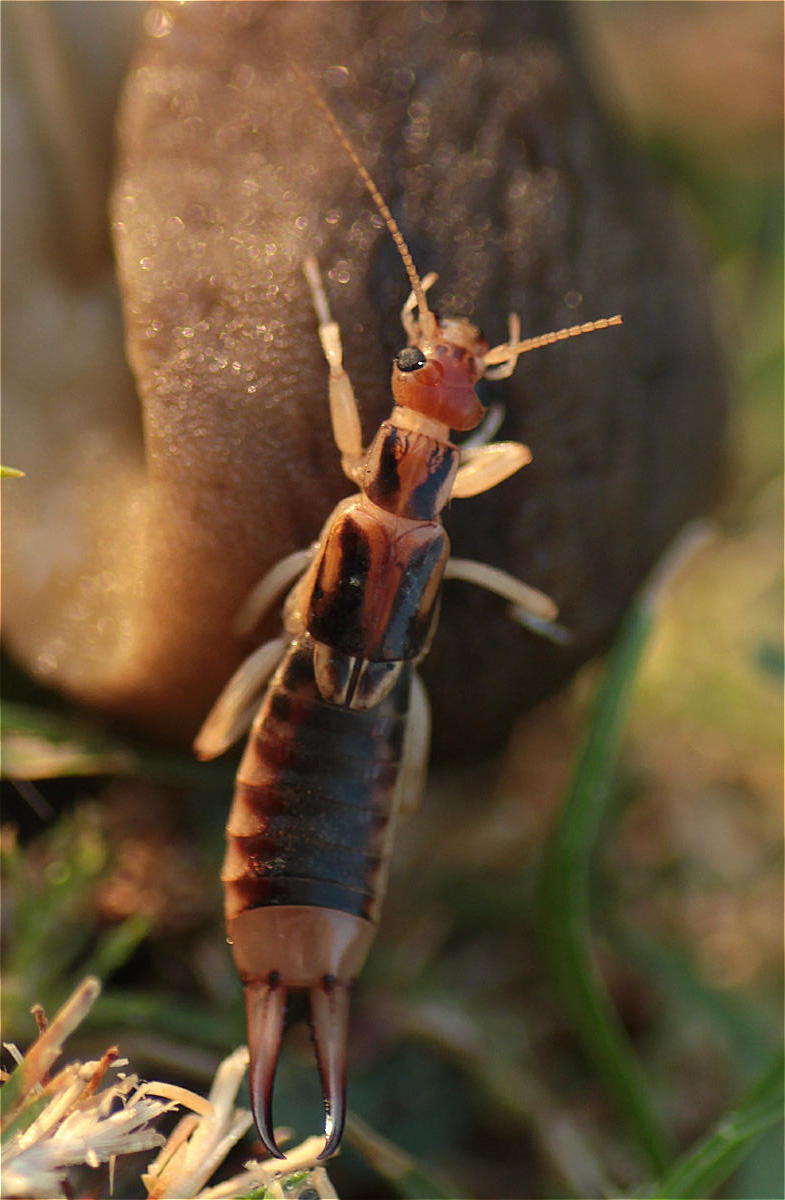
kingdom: Animalia
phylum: Arthropoda
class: Insecta
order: Dermaptera
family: Labiduridae
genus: Labidura
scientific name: Labidura riparia
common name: Striped earwig
